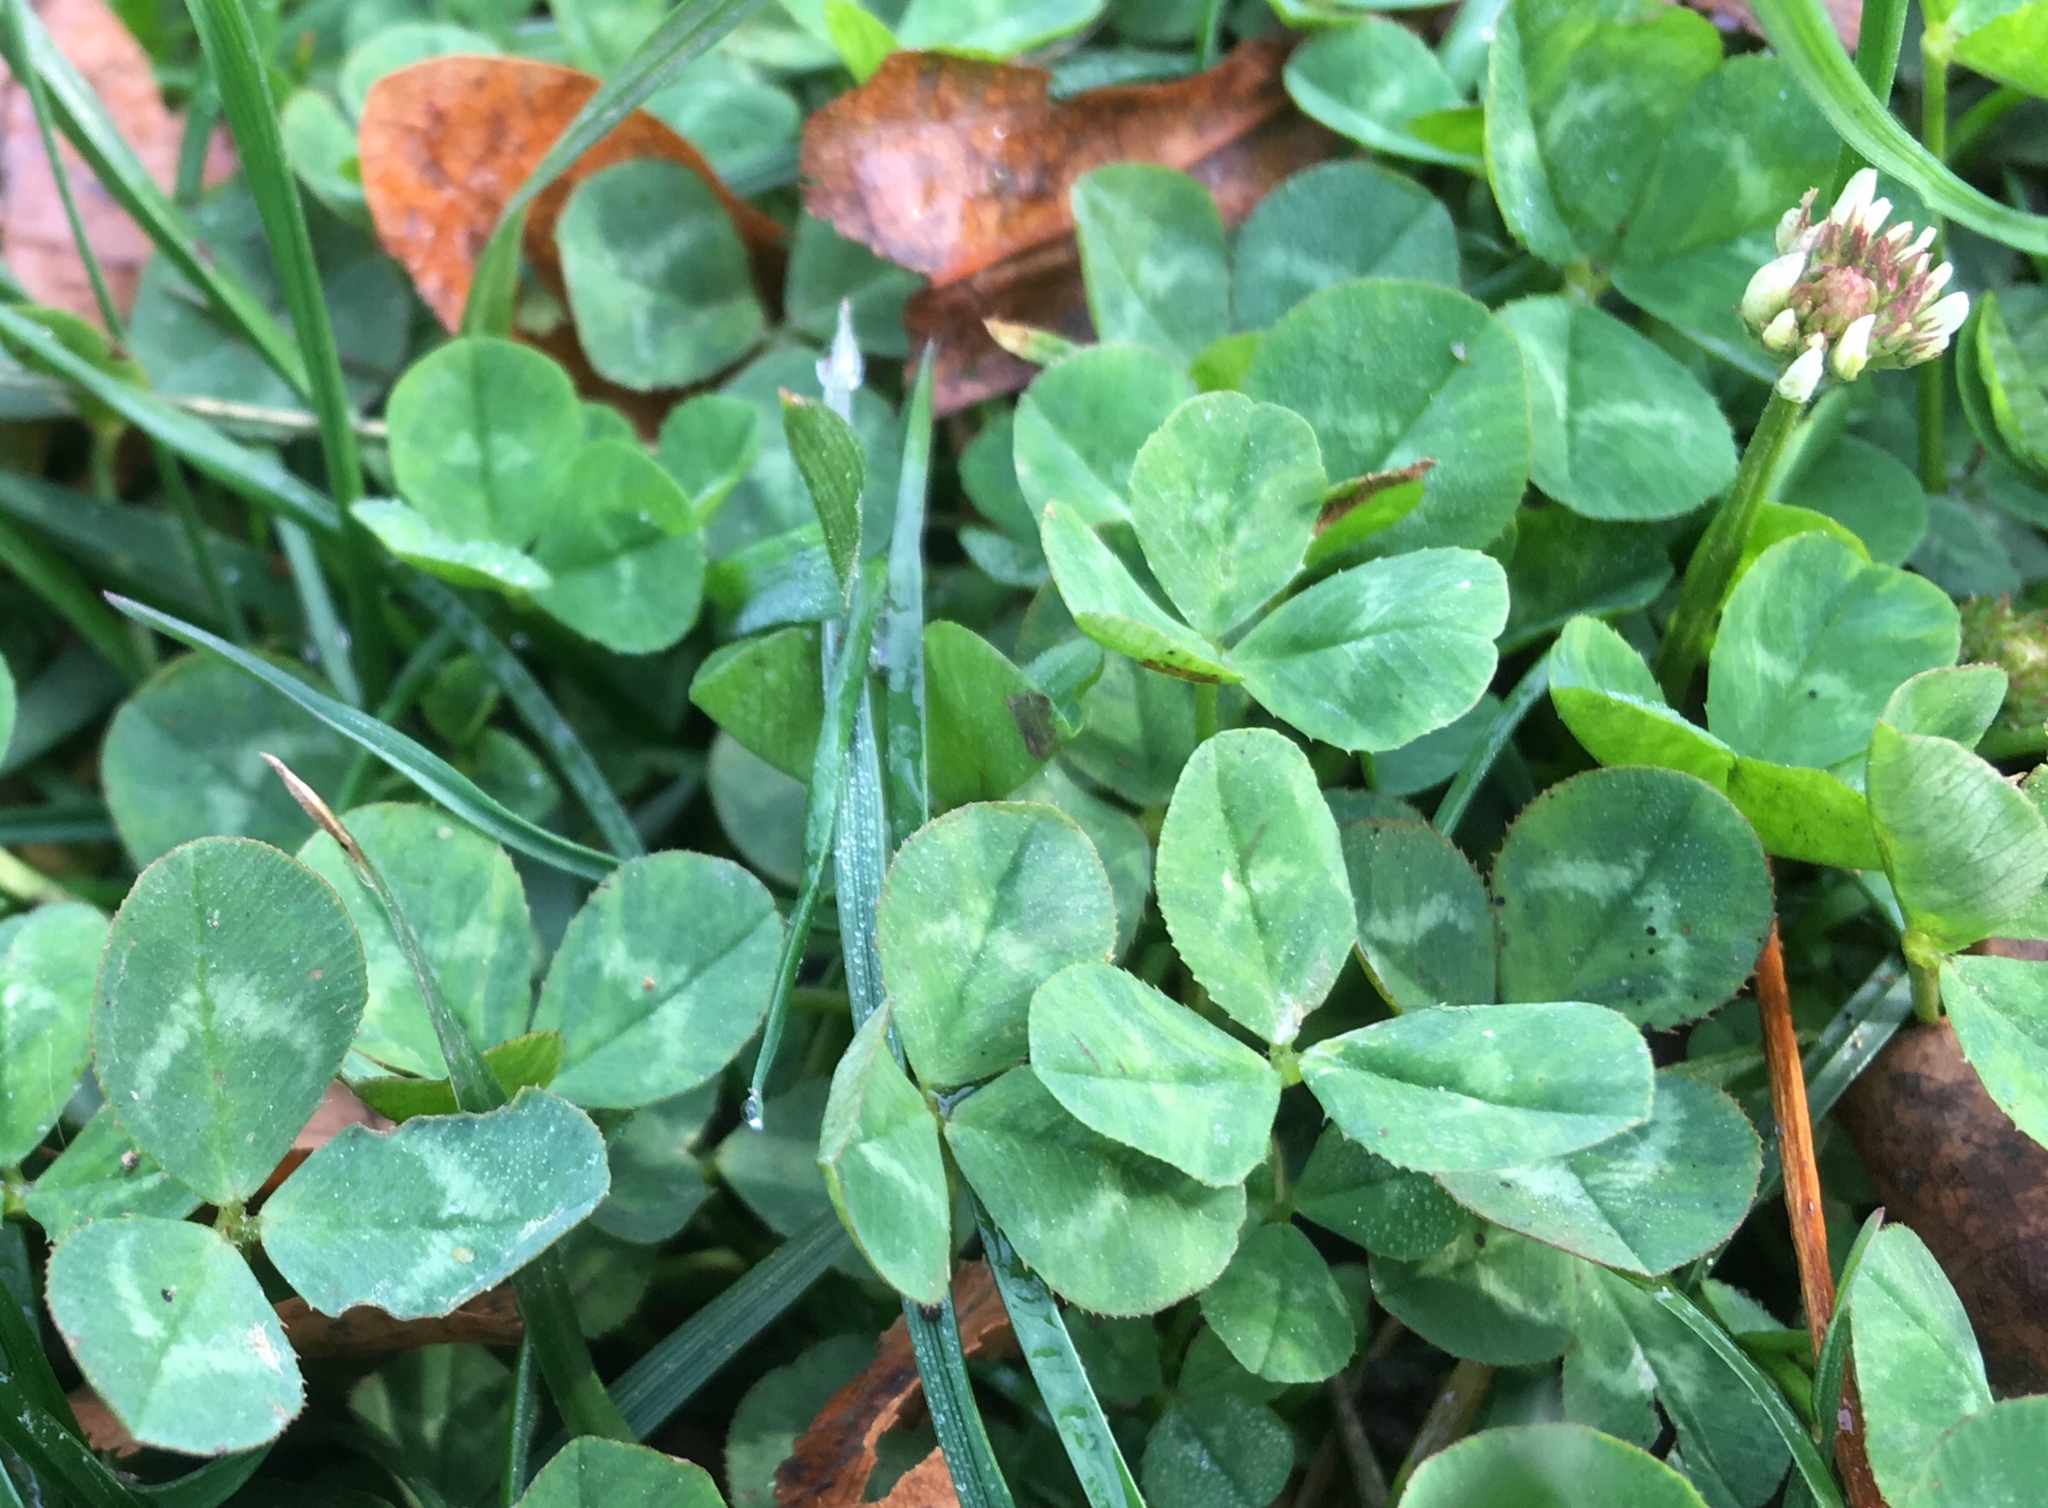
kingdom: Plantae
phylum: Tracheophyta
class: Magnoliopsida
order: Fabales
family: Fabaceae
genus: Trifolium
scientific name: Trifolium repens
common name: White clover
